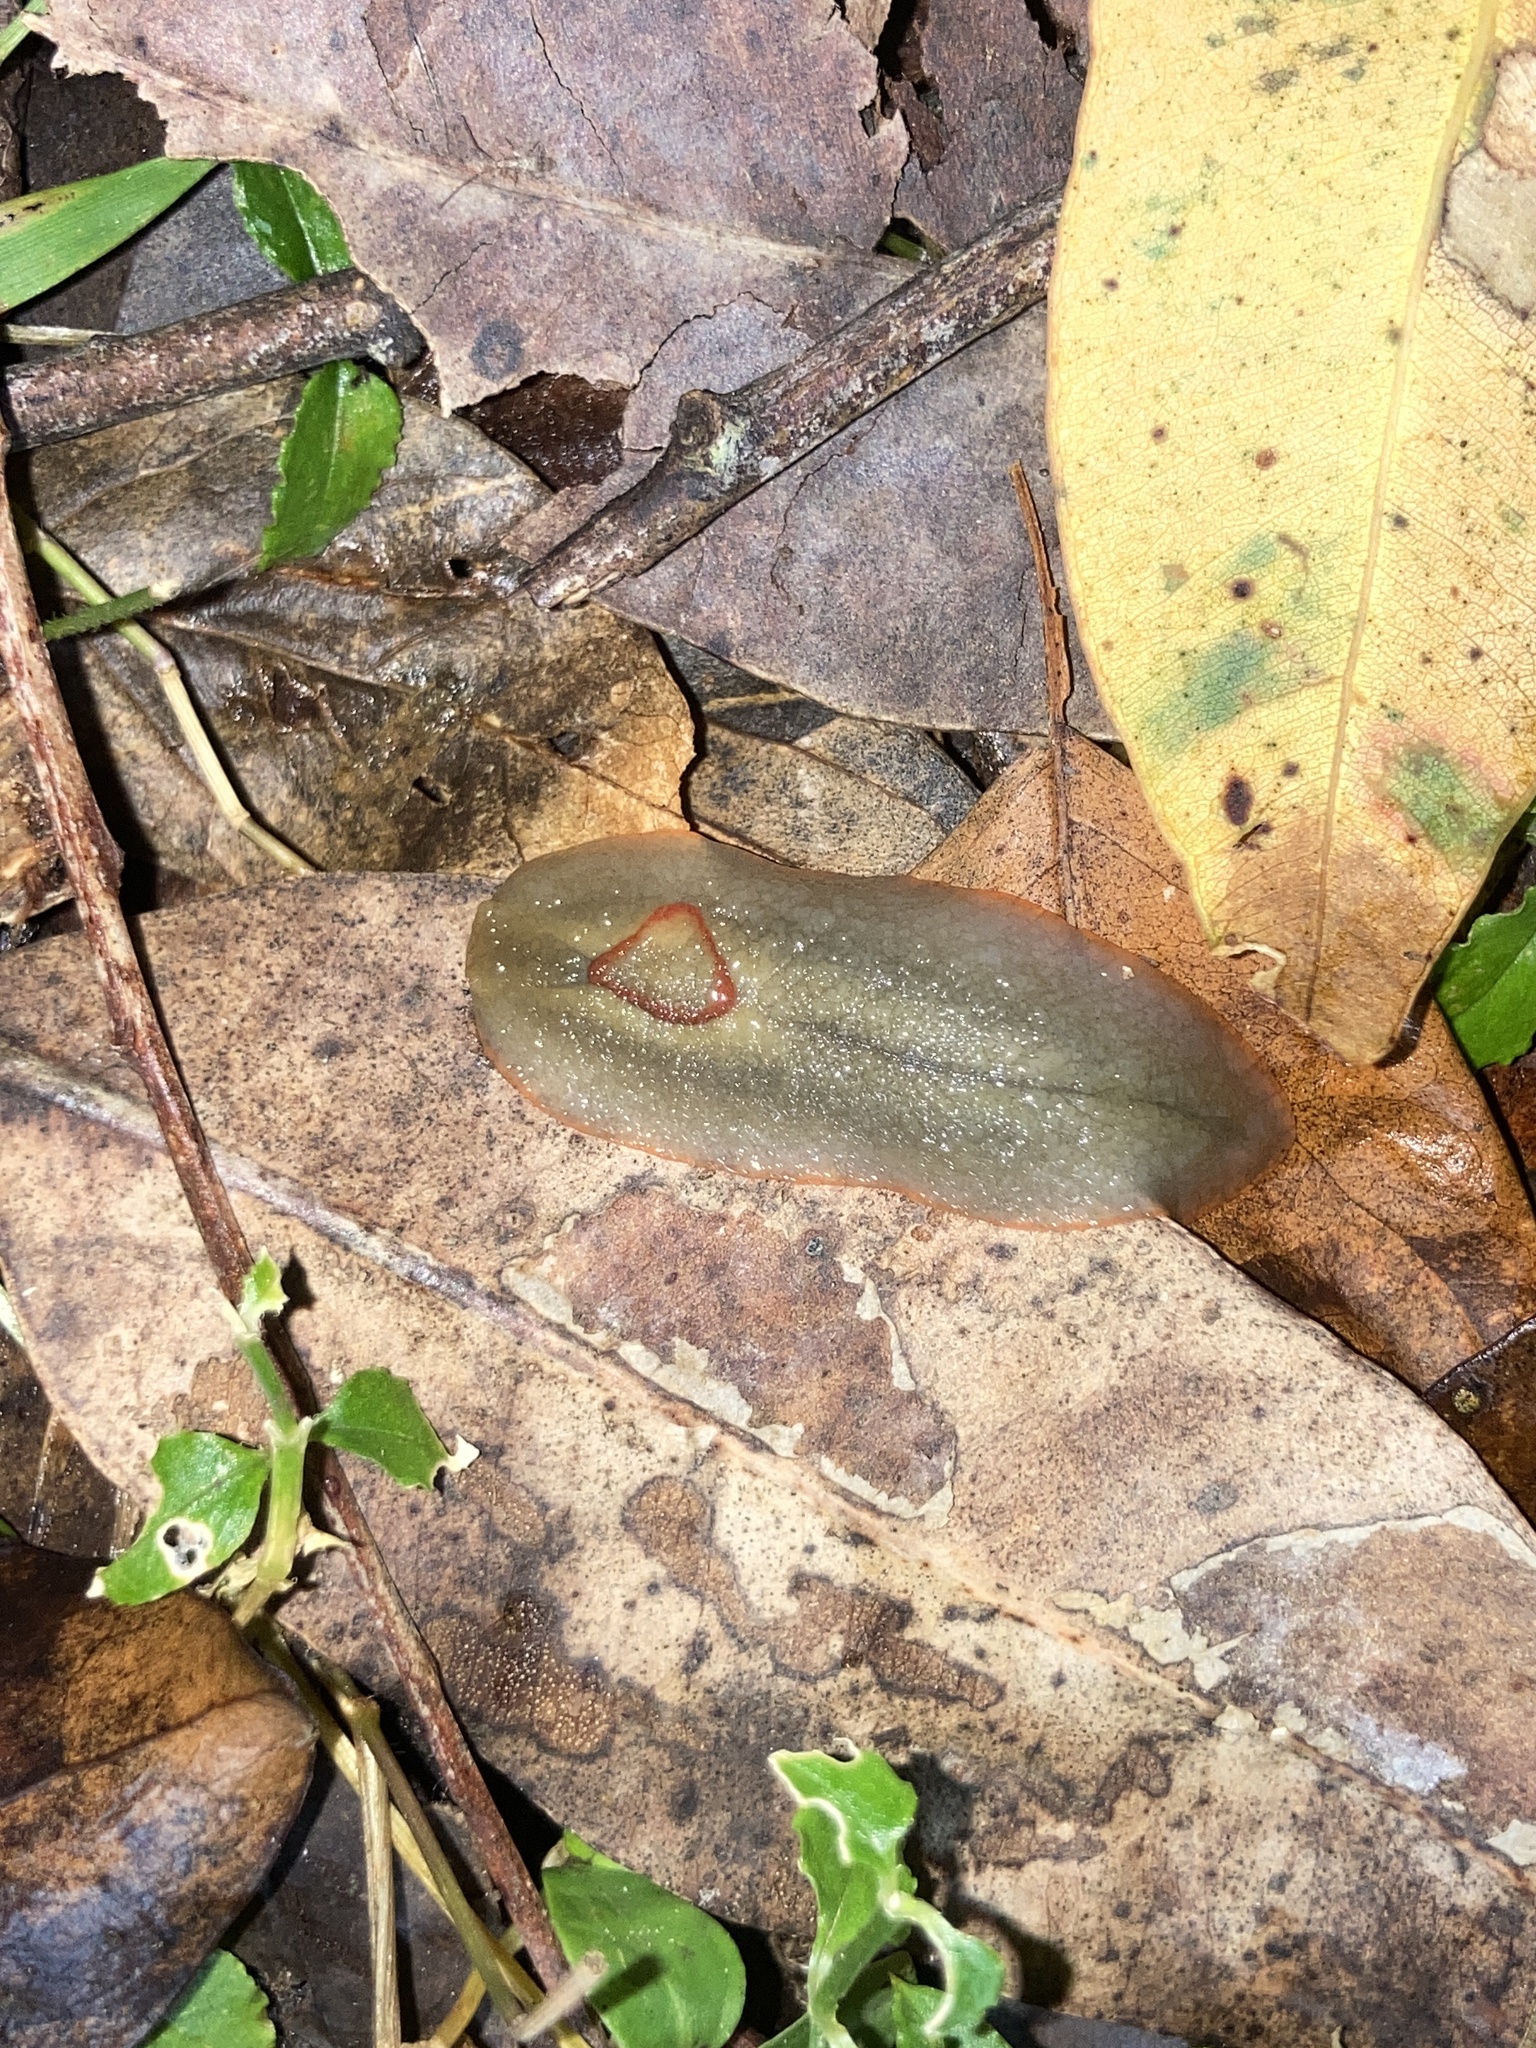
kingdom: Animalia
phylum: Mollusca
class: Gastropoda
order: Stylommatophora
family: Athoracophoridae
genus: Triboniophorus
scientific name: Triboniophorus graeffei
